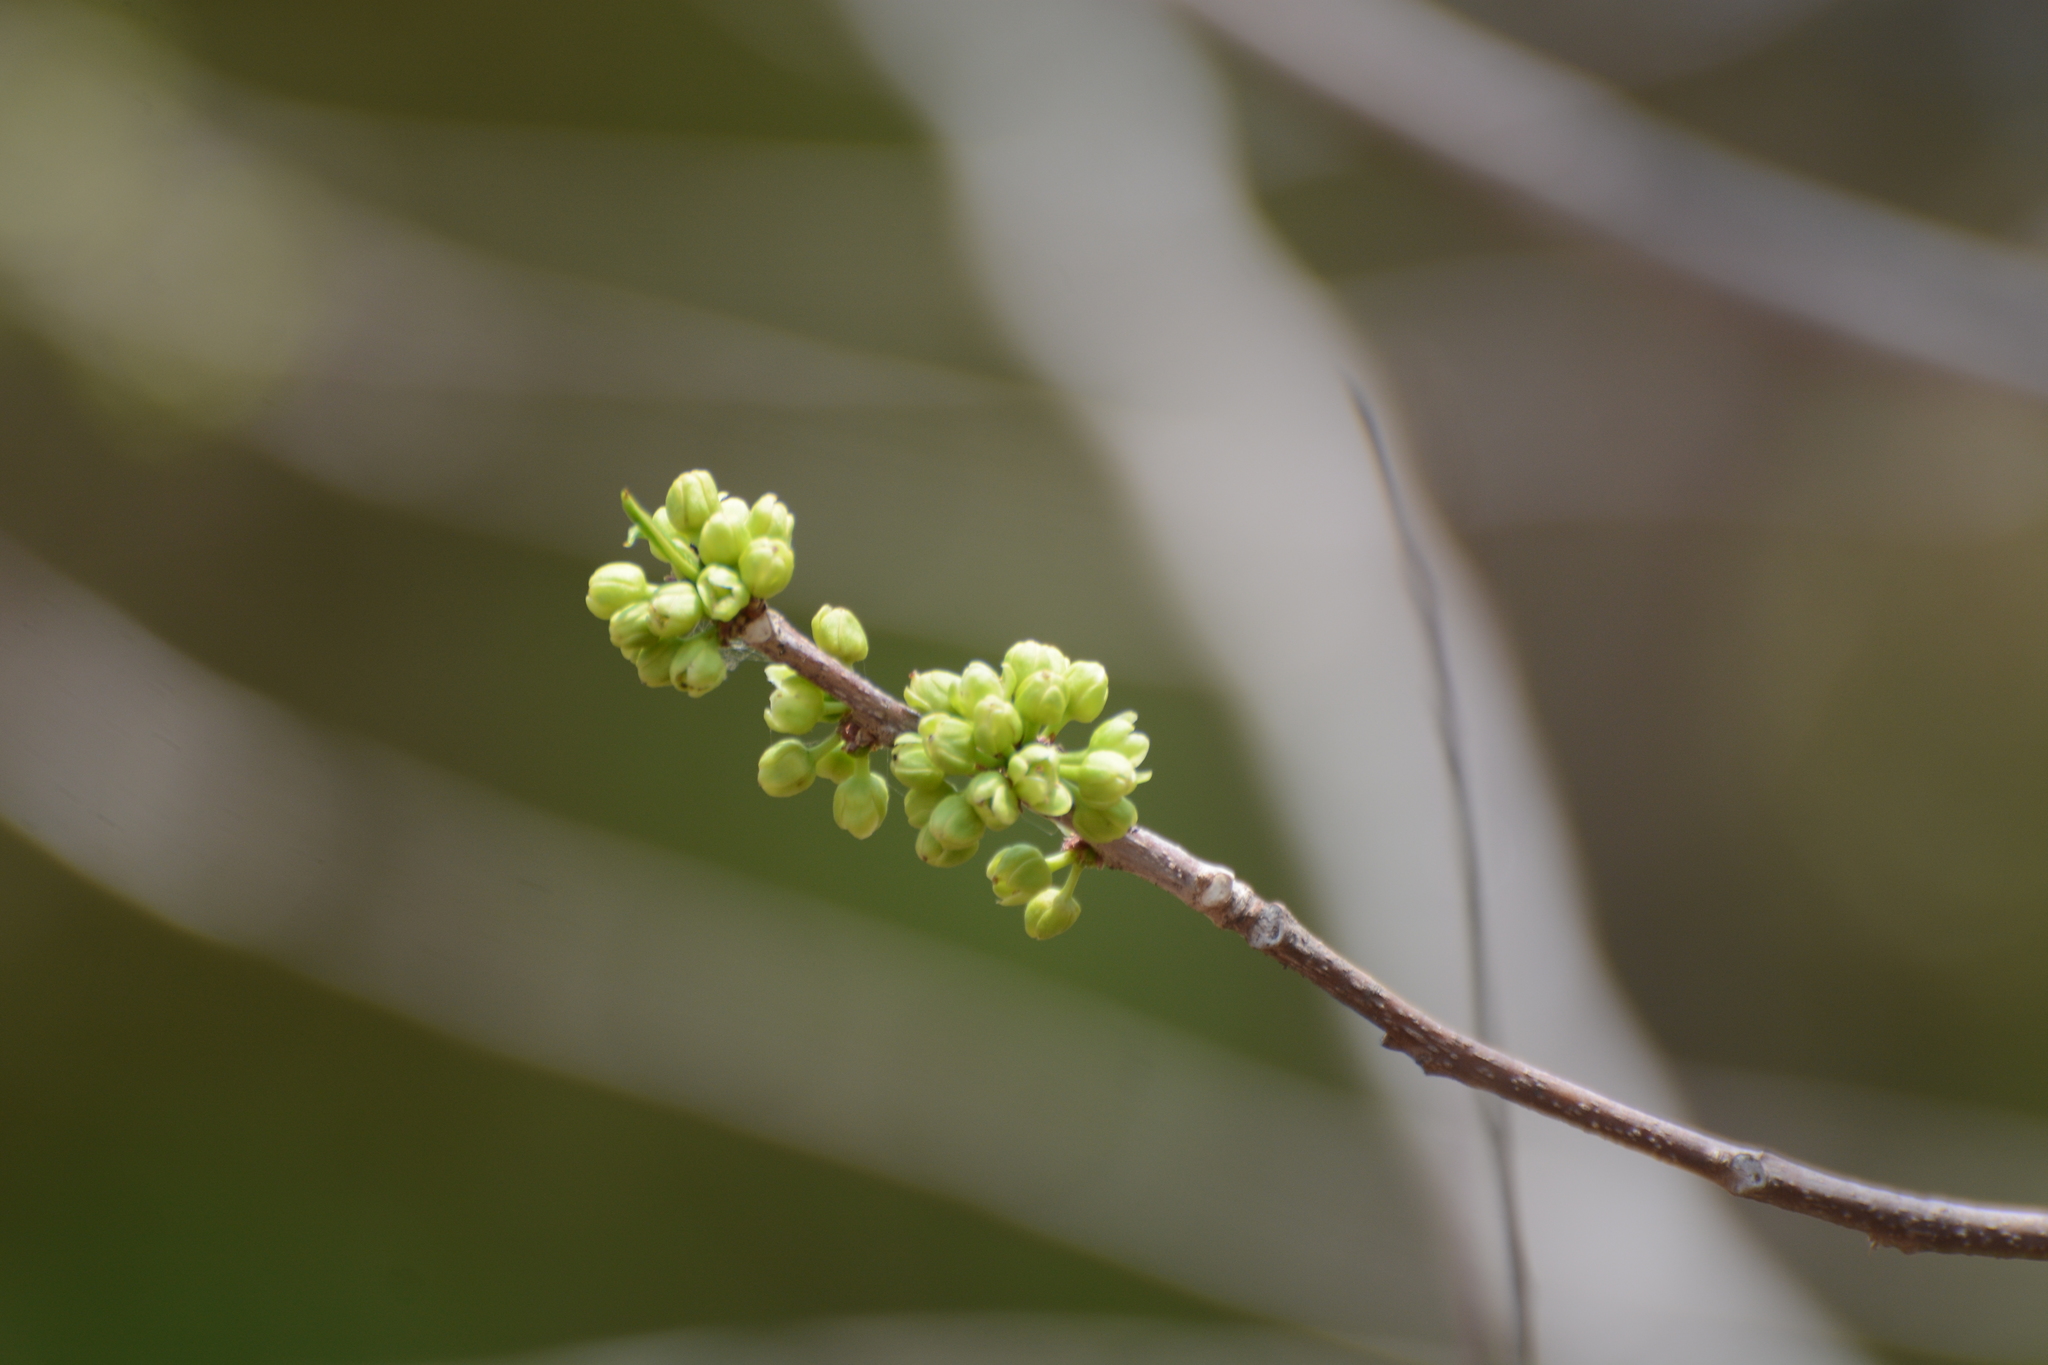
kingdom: Plantae
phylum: Tracheophyta
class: Magnoliopsida
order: Malpighiales
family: Salicaceae
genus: Casearia
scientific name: Casearia graveolens
